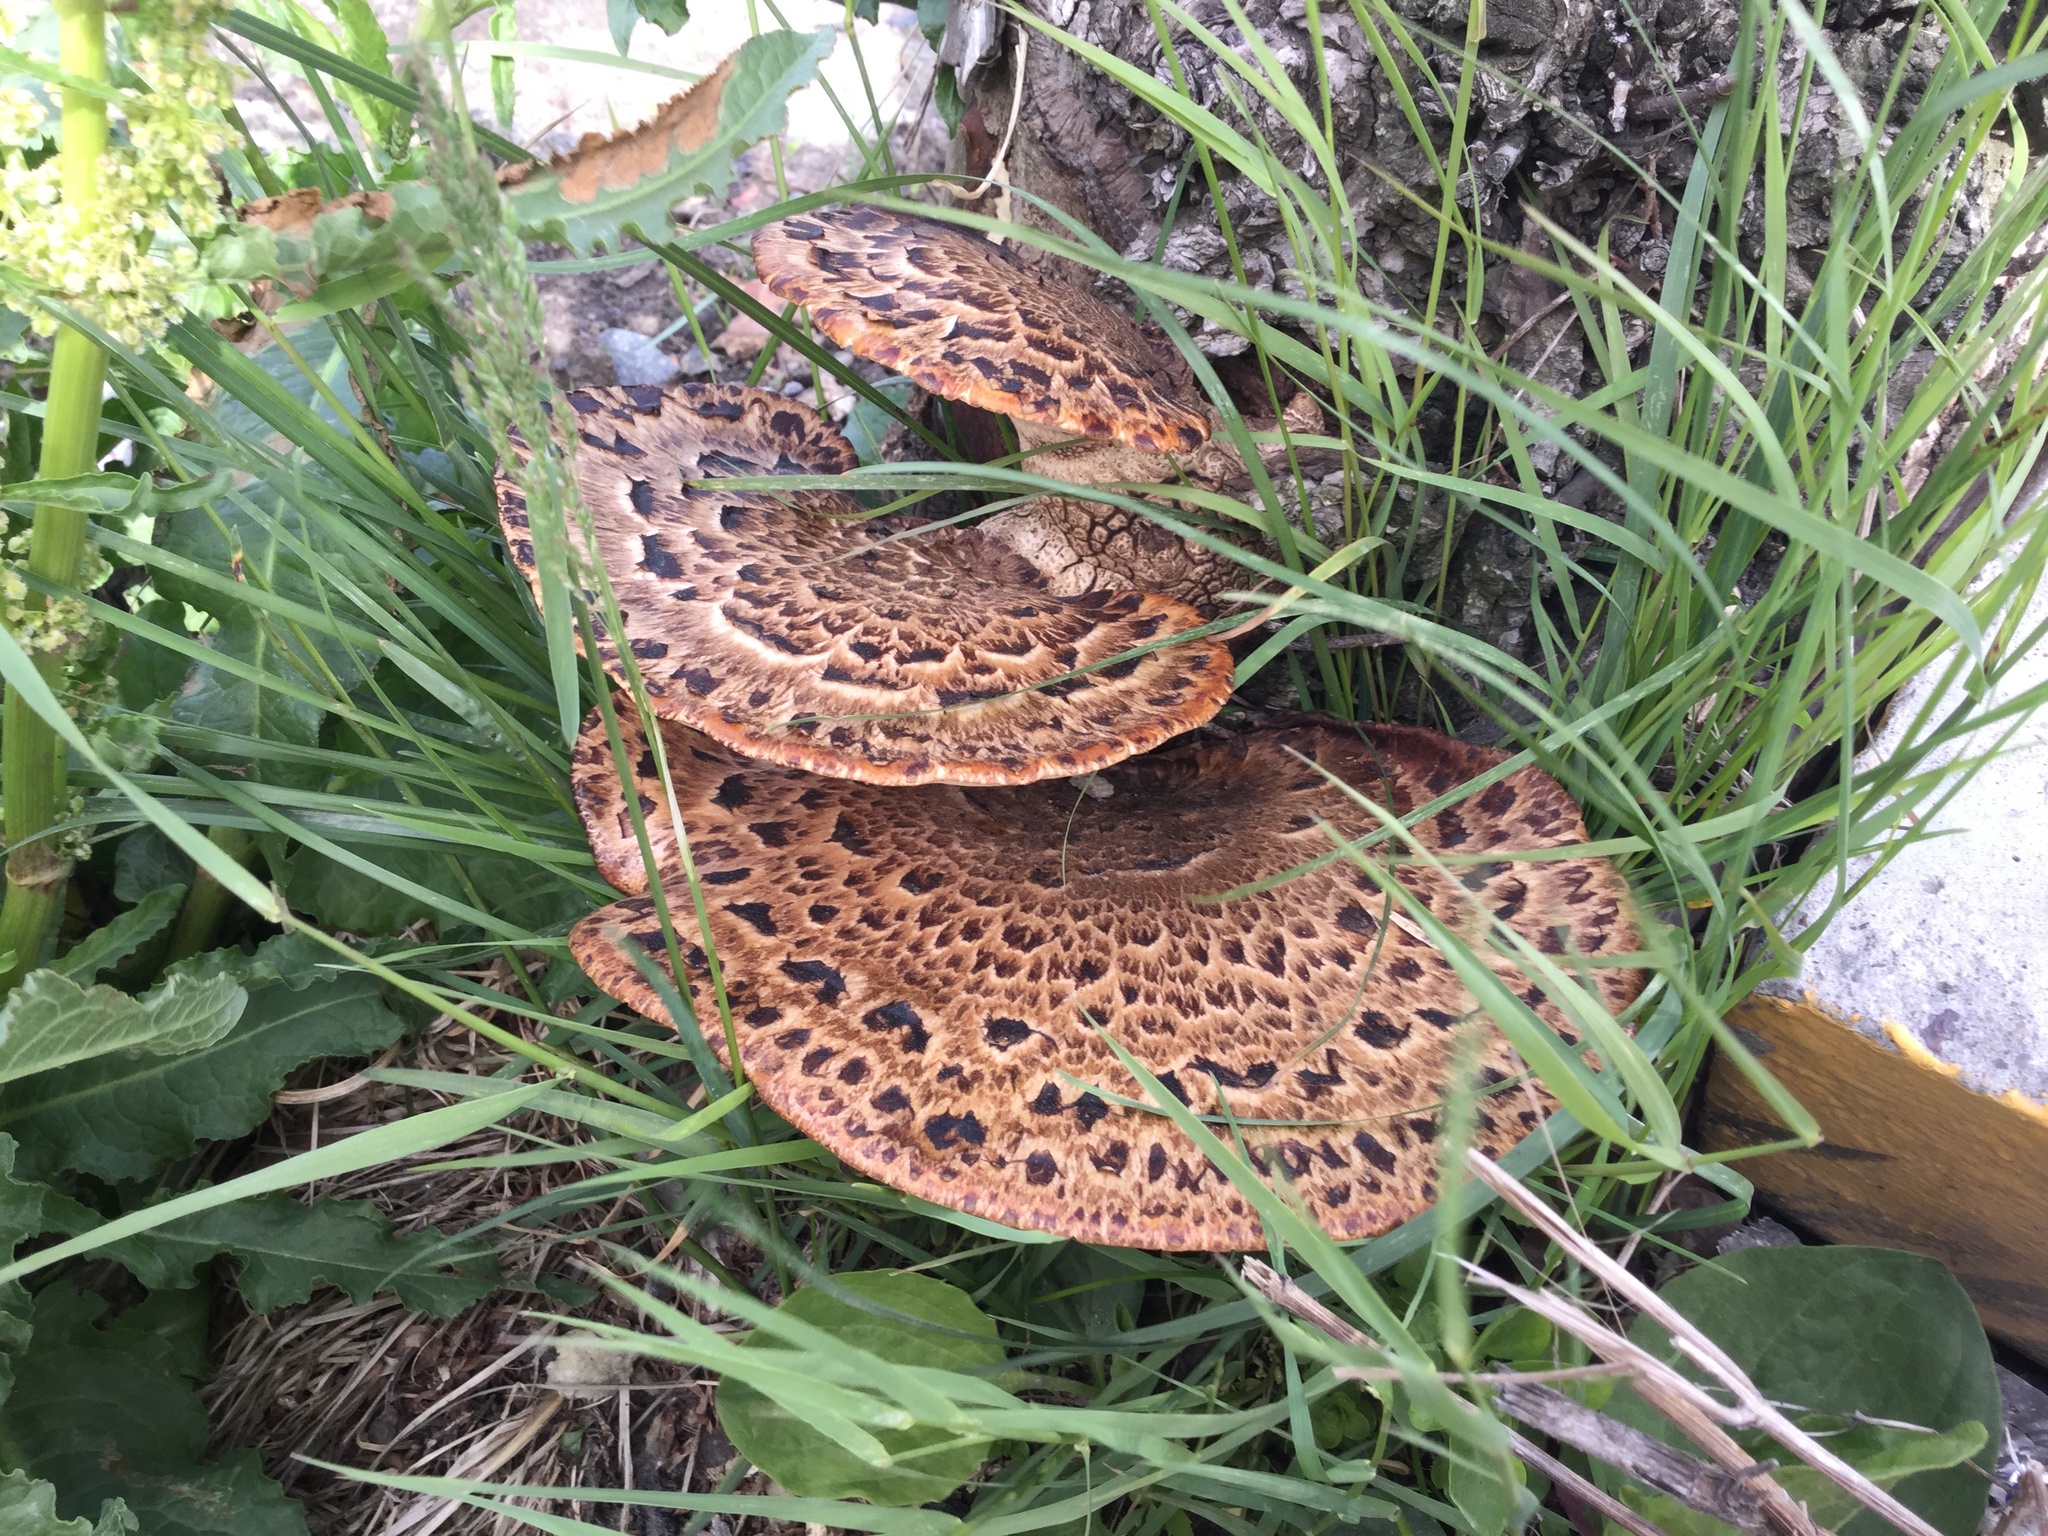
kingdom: Fungi
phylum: Basidiomycota
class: Agaricomycetes
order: Polyporales
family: Polyporaceae
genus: Cerioporus
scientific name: Cerioporus squamosus
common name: Dryad's saddle
